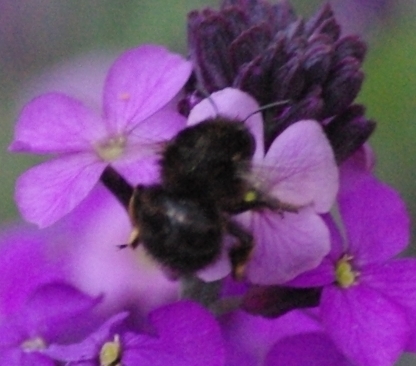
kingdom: Animalia
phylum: Arthropoda
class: Insecta
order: Hymenoptera
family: Apidae
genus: Anthophora
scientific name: Anthophora plumipes
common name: Hairy-footed flower bee
